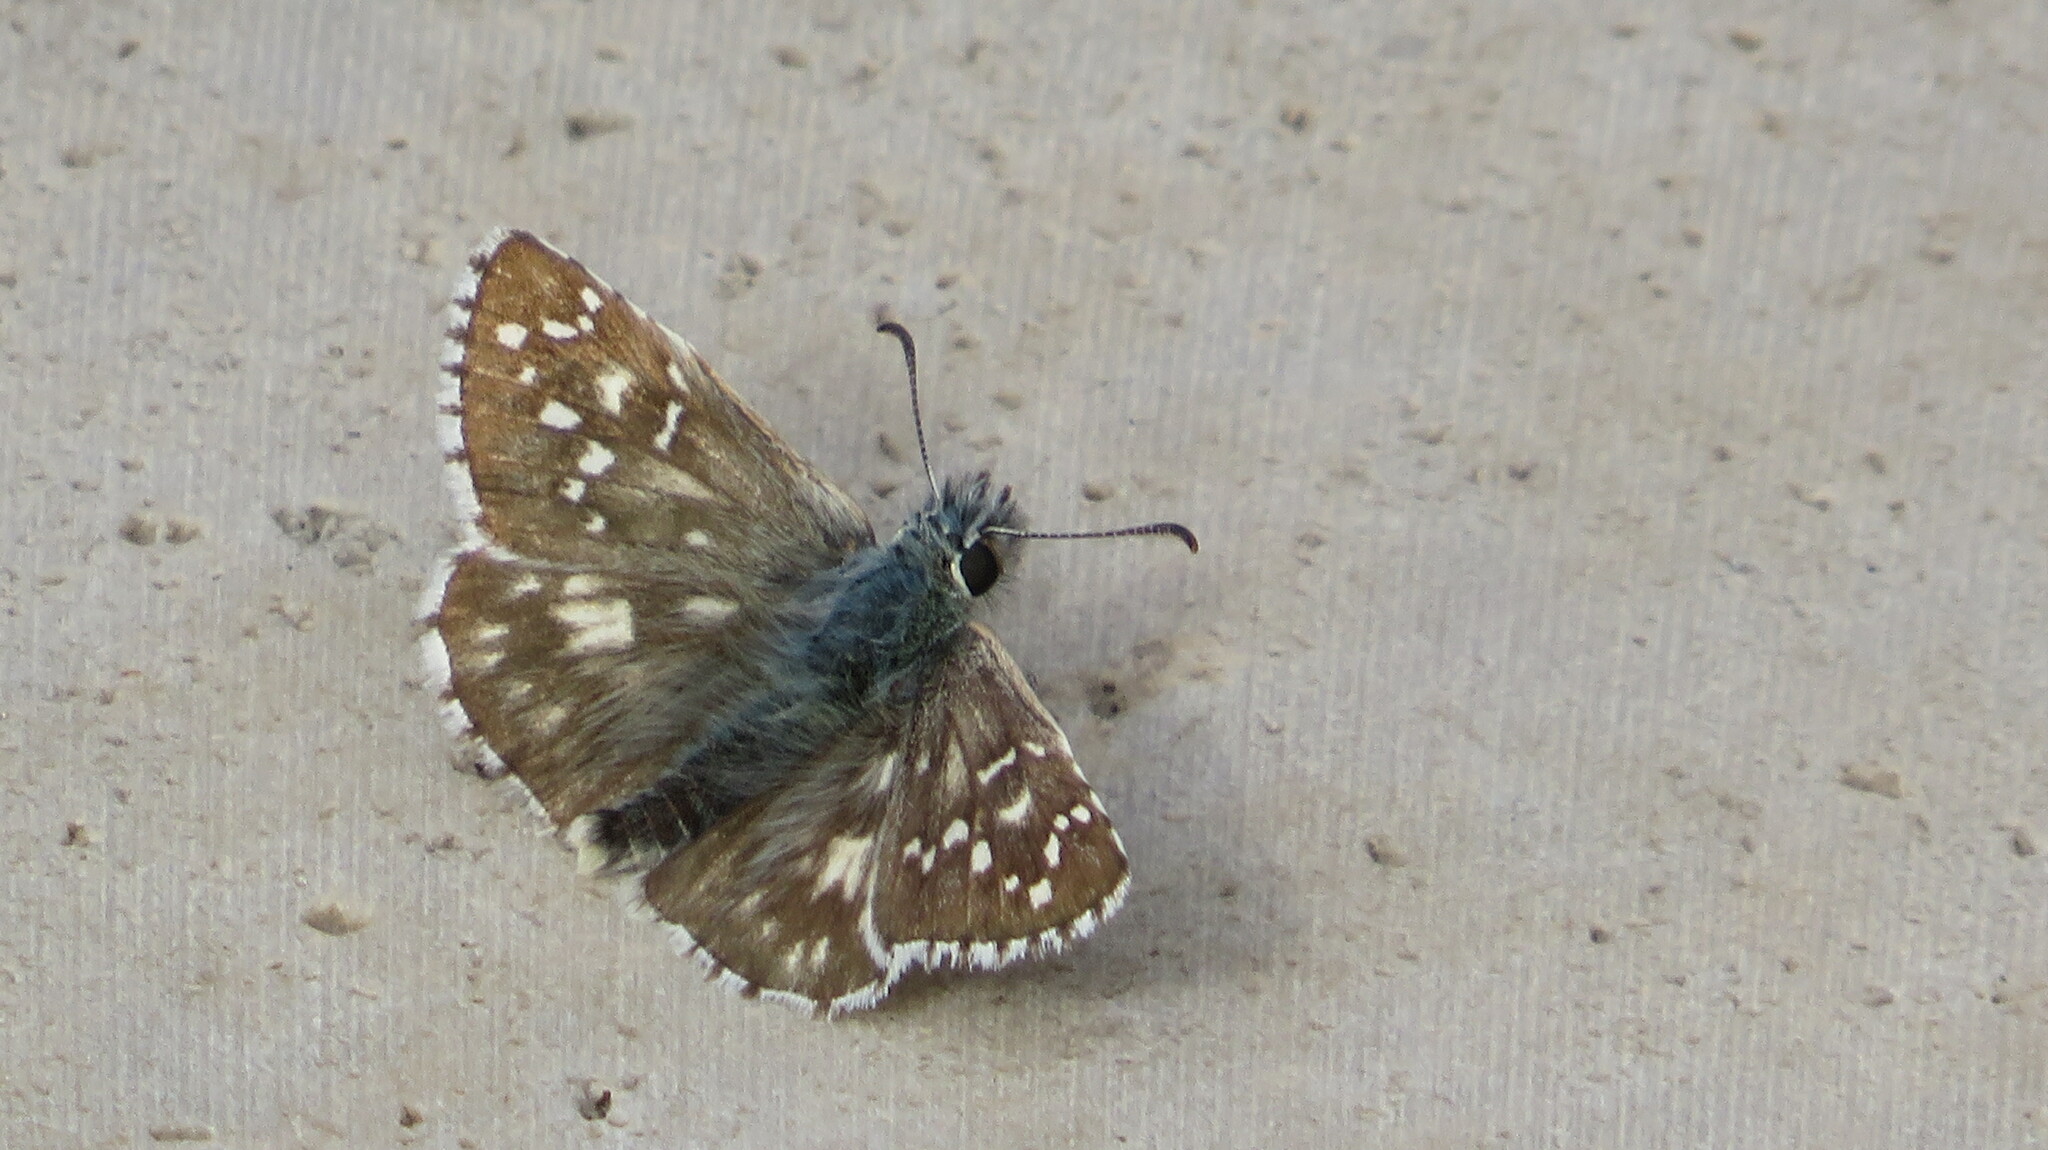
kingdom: Animalia
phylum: Arthropoda
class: Insecta
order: Lepidoptera
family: Hesperiidae
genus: Pyrgus
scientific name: Pyrgus armoricanus
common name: Oberthür's grizzled skipper
